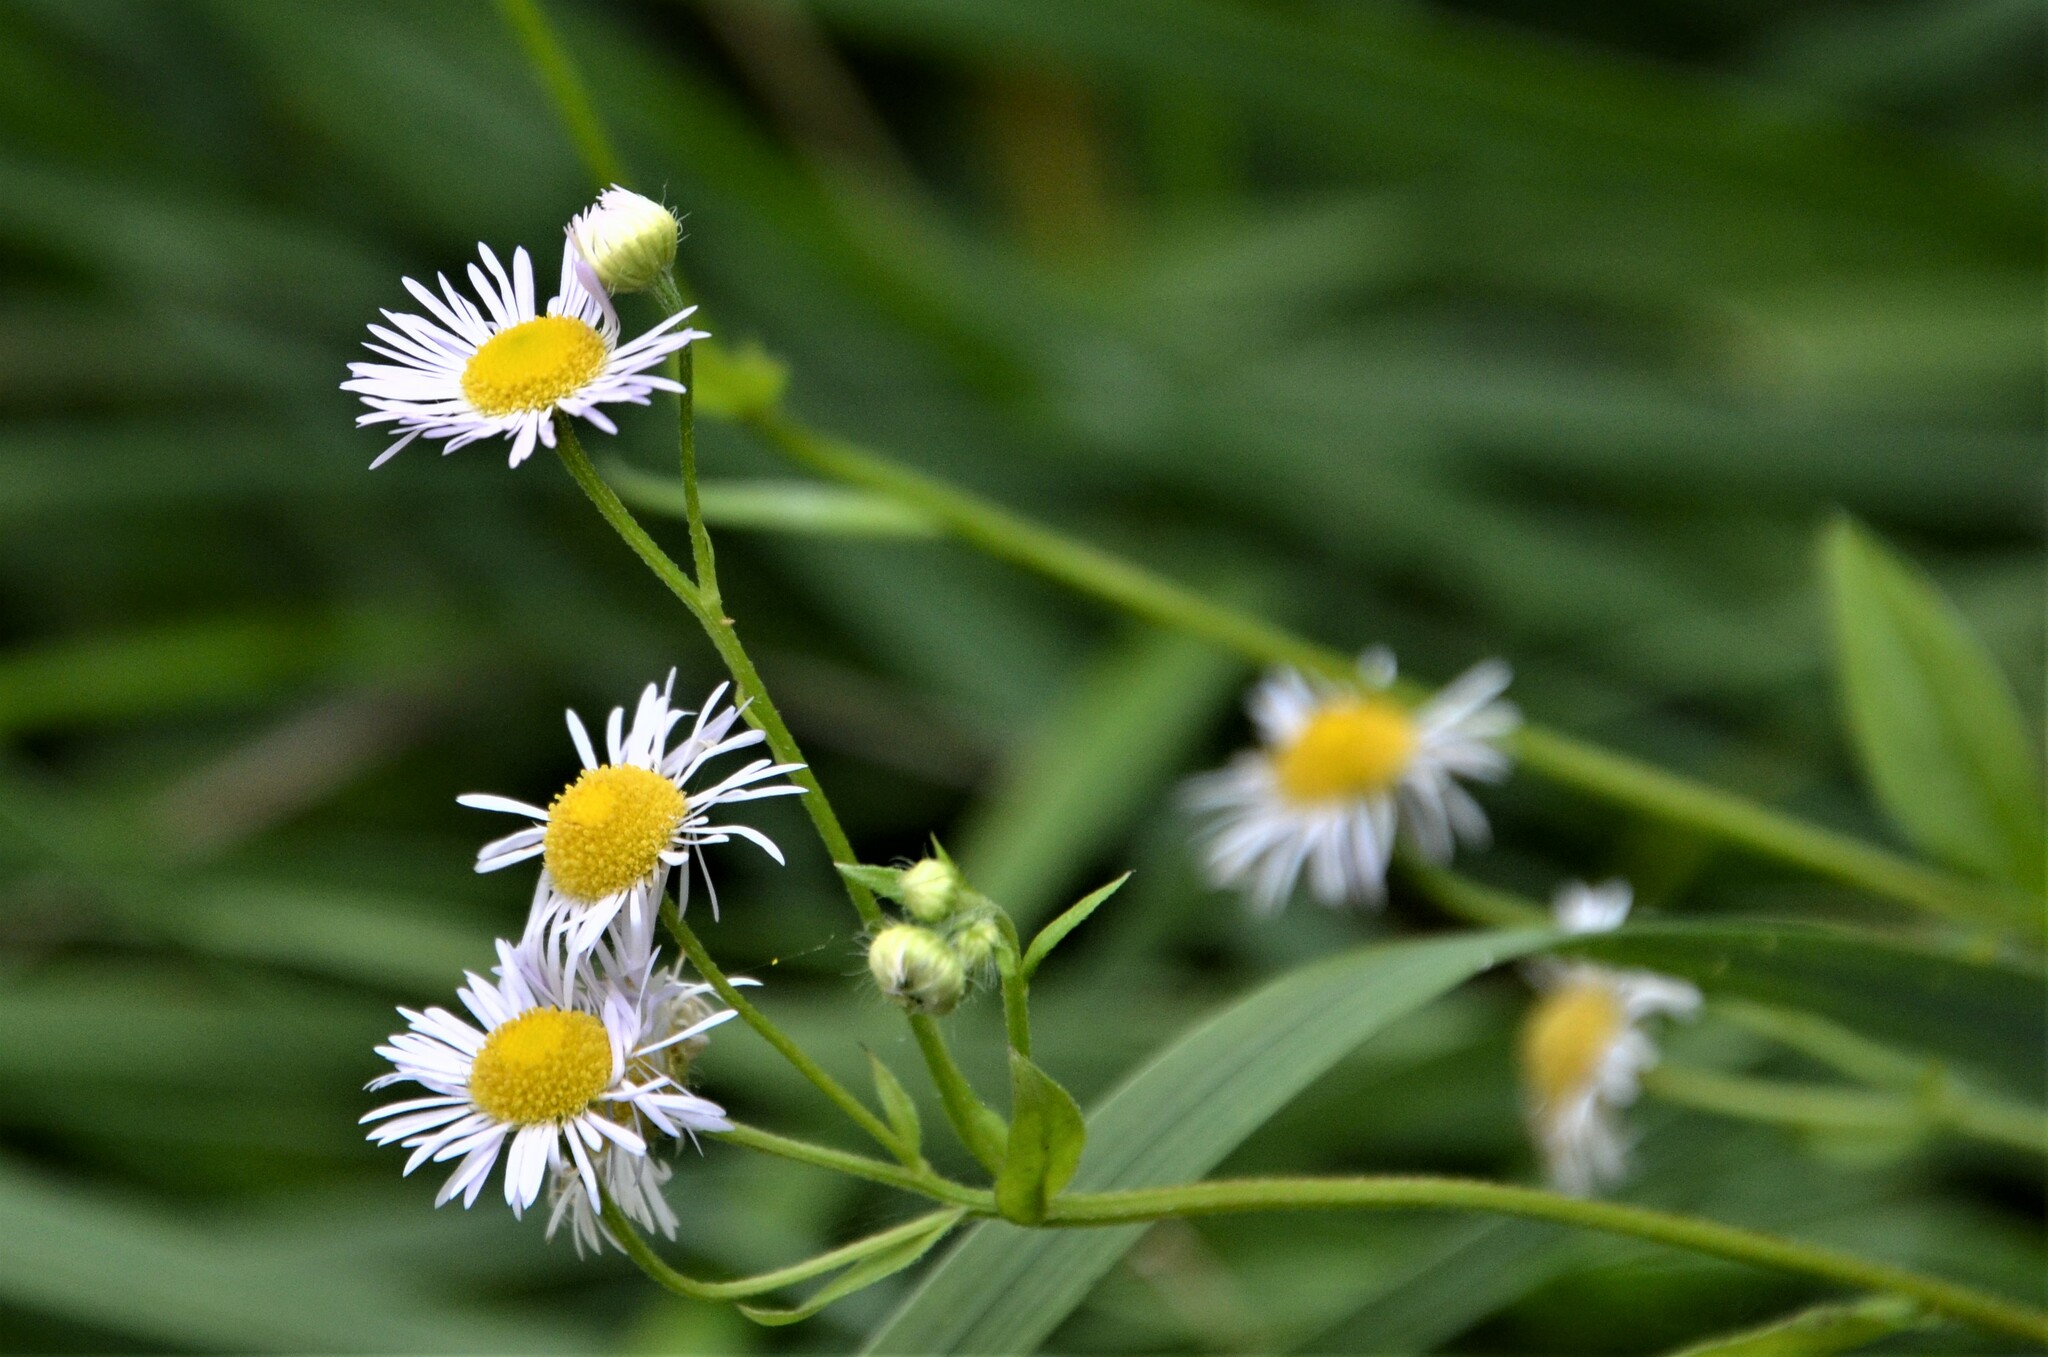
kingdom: Plantae
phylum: Tracheophyta
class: Magnoliopsida
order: Asterales
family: Asteraceae
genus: Erigeron
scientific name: Erigeron annuus
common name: Tall fleabane
